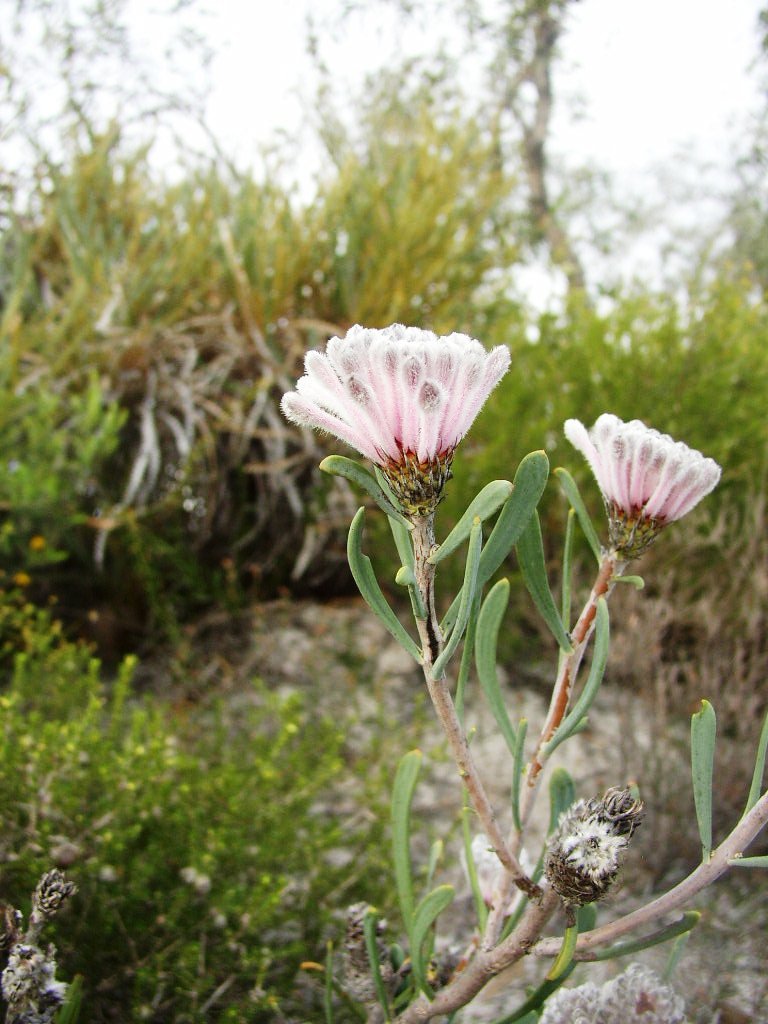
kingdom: Plantae
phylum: Tracheophyta
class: Magnoliopsida
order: Proteales
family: Proteaceae
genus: Petrophile
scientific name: Petrophile linearis
